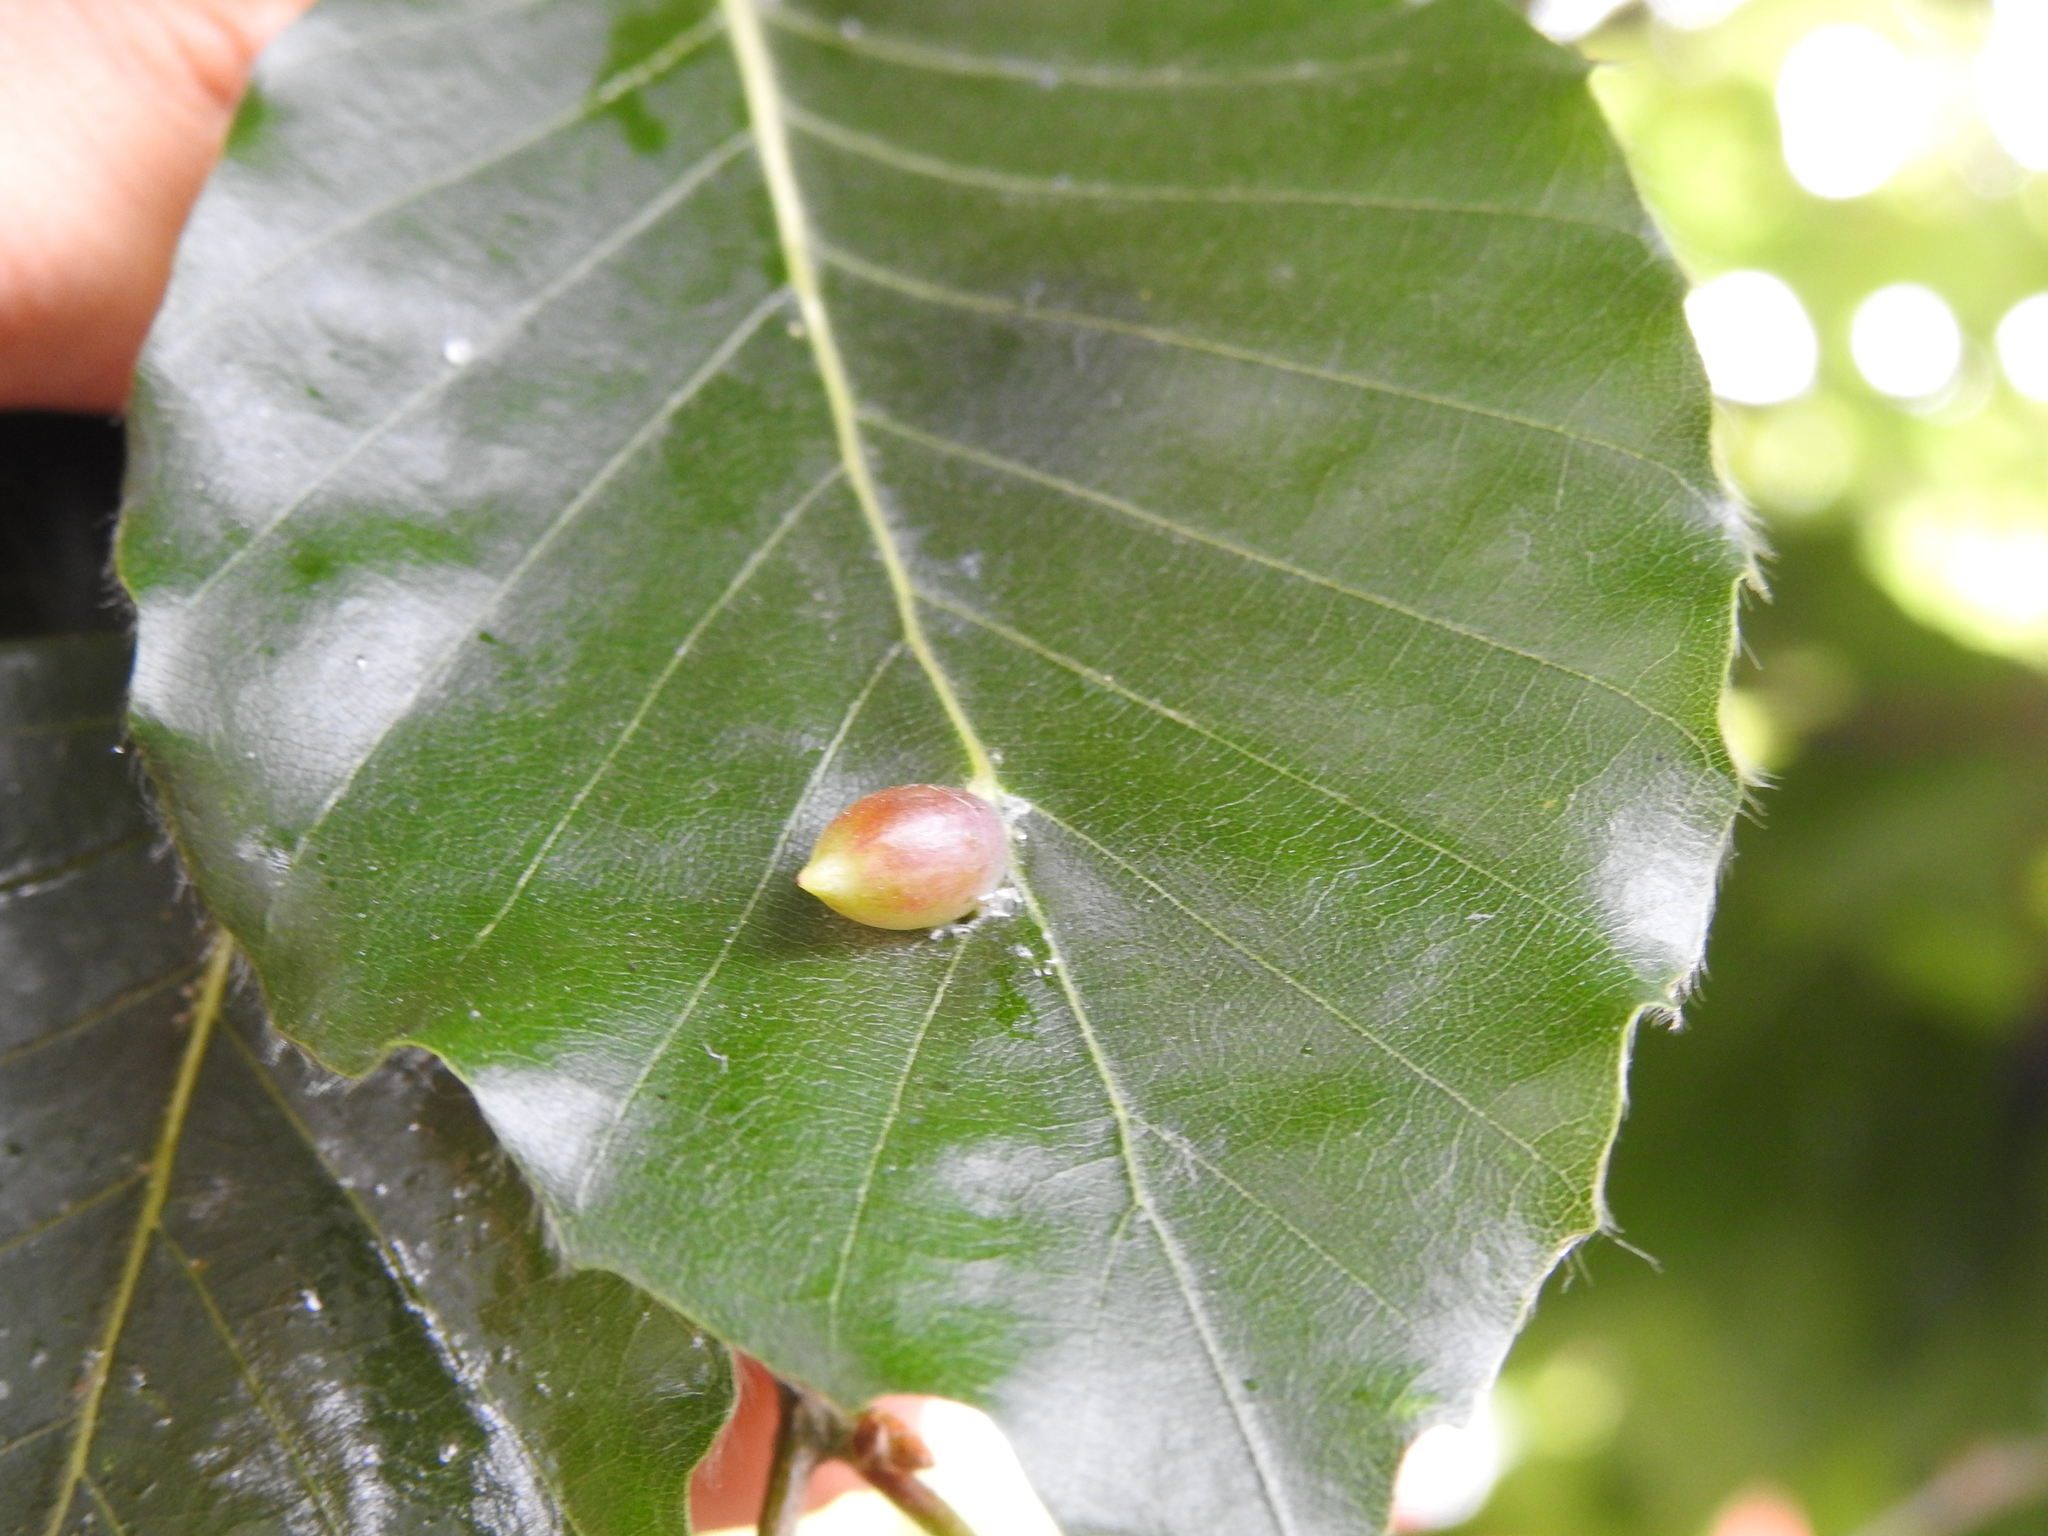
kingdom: Animalia
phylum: Arthropoda
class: Insecta
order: Diptera
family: Cecidomyiidae
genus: Mikiola
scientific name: Mikiola fagi
